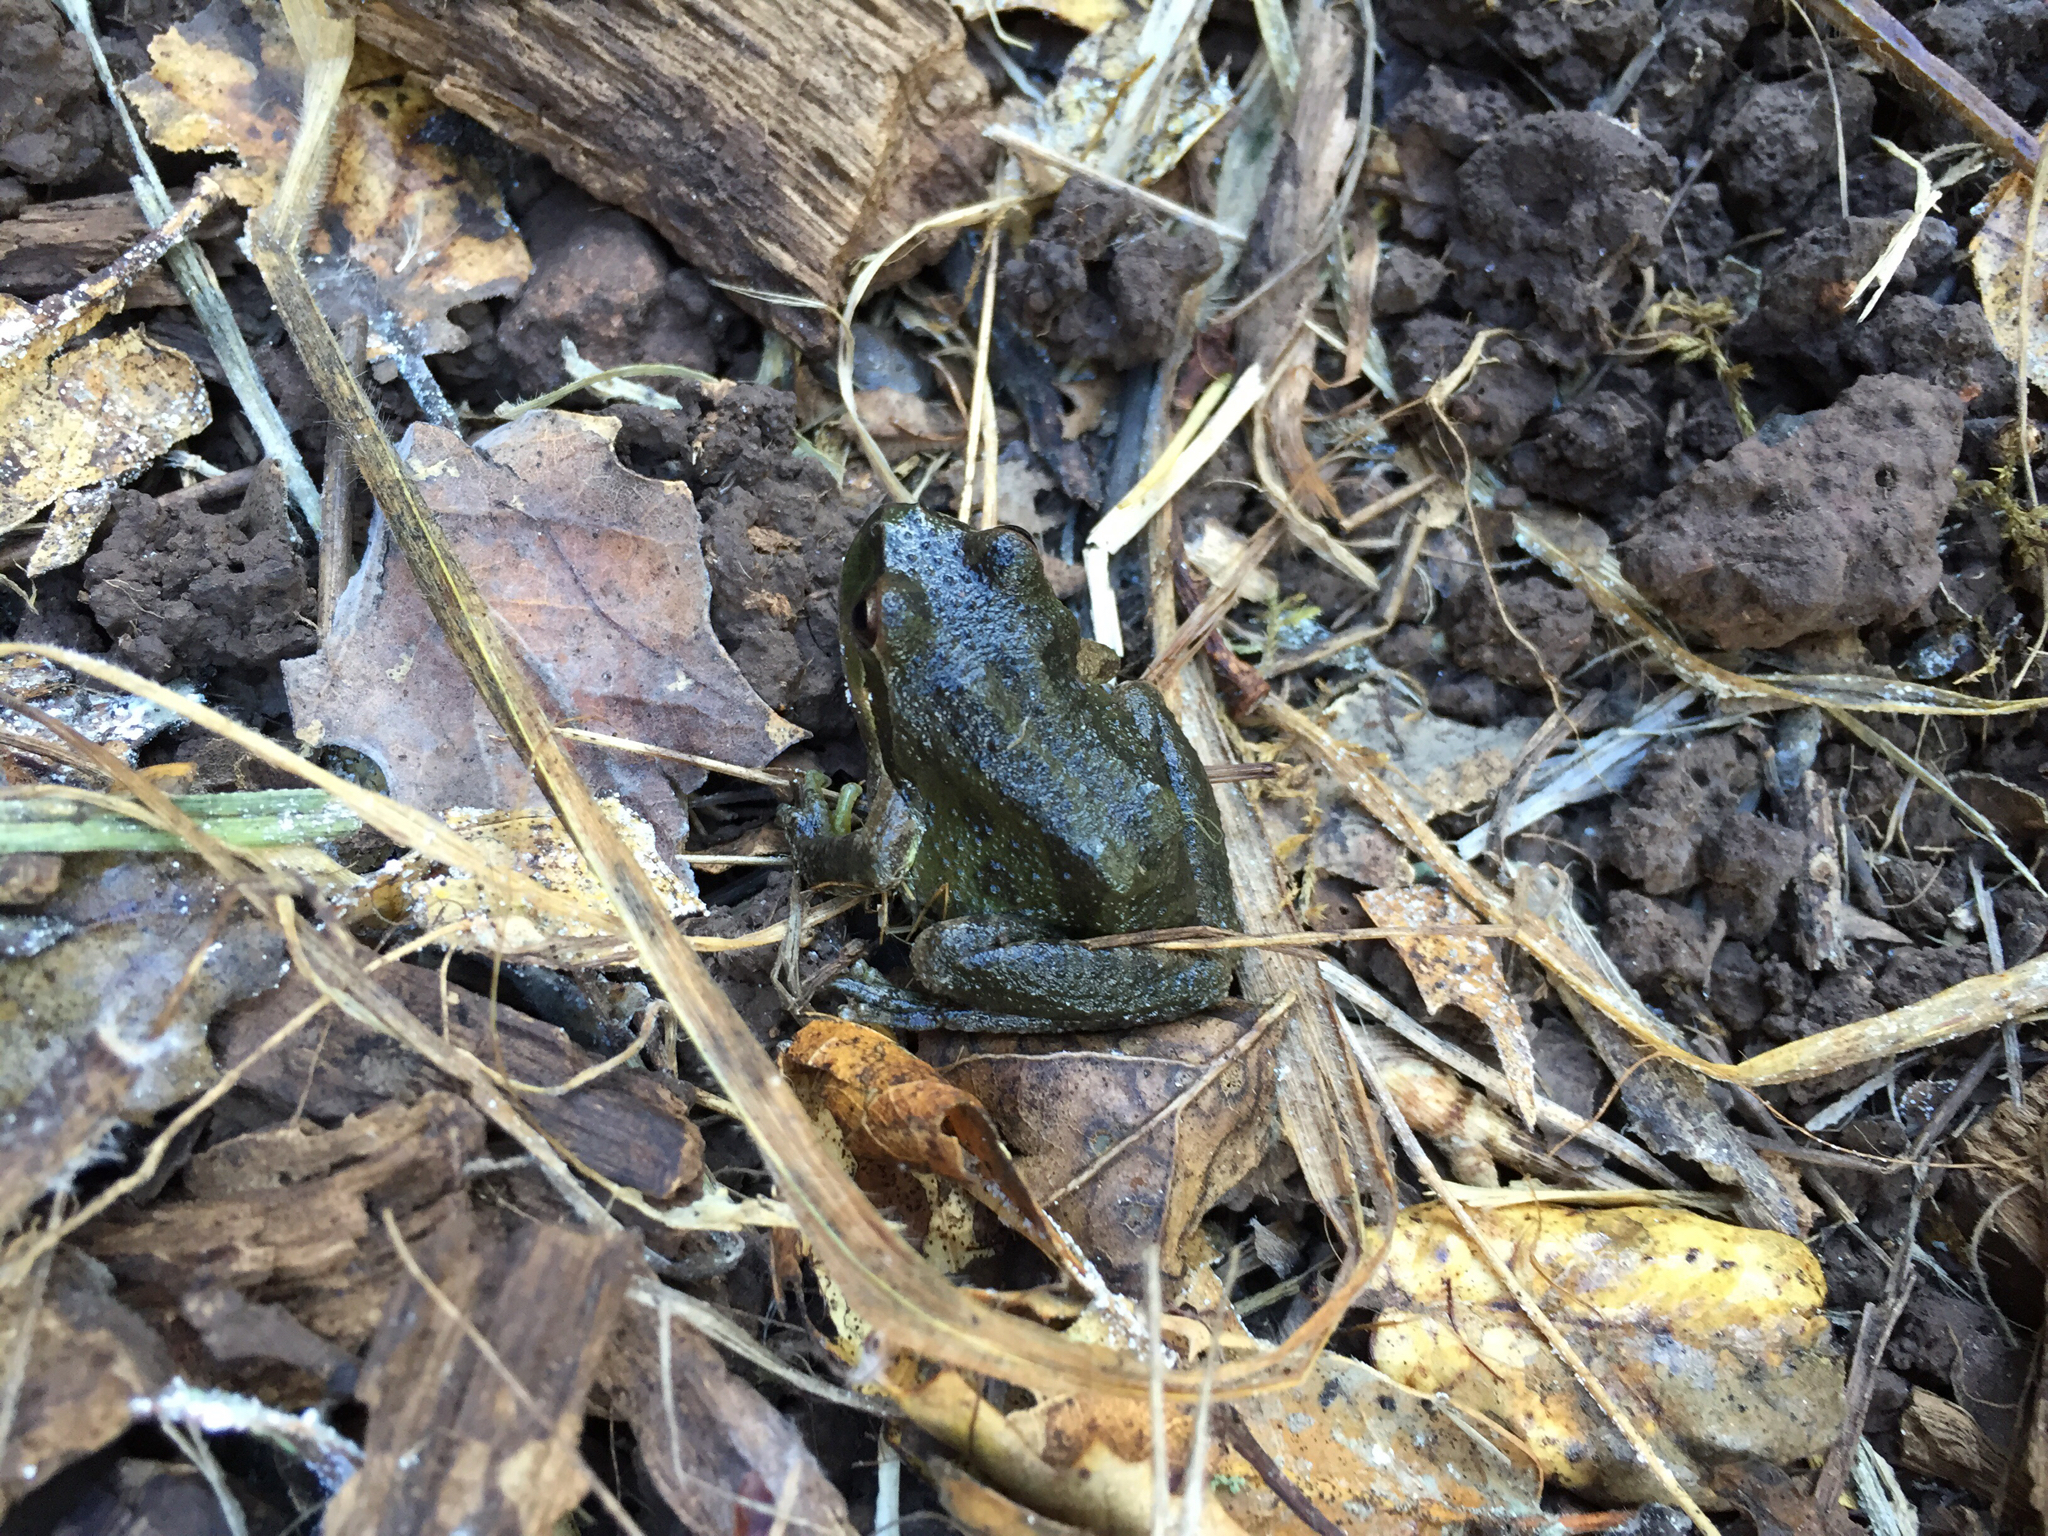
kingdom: Animalia
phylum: Chordata
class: Amphibia
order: Anura
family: Hylidae
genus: Pseudacris
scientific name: Pseudacris regilla
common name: Pacific chorus frog
